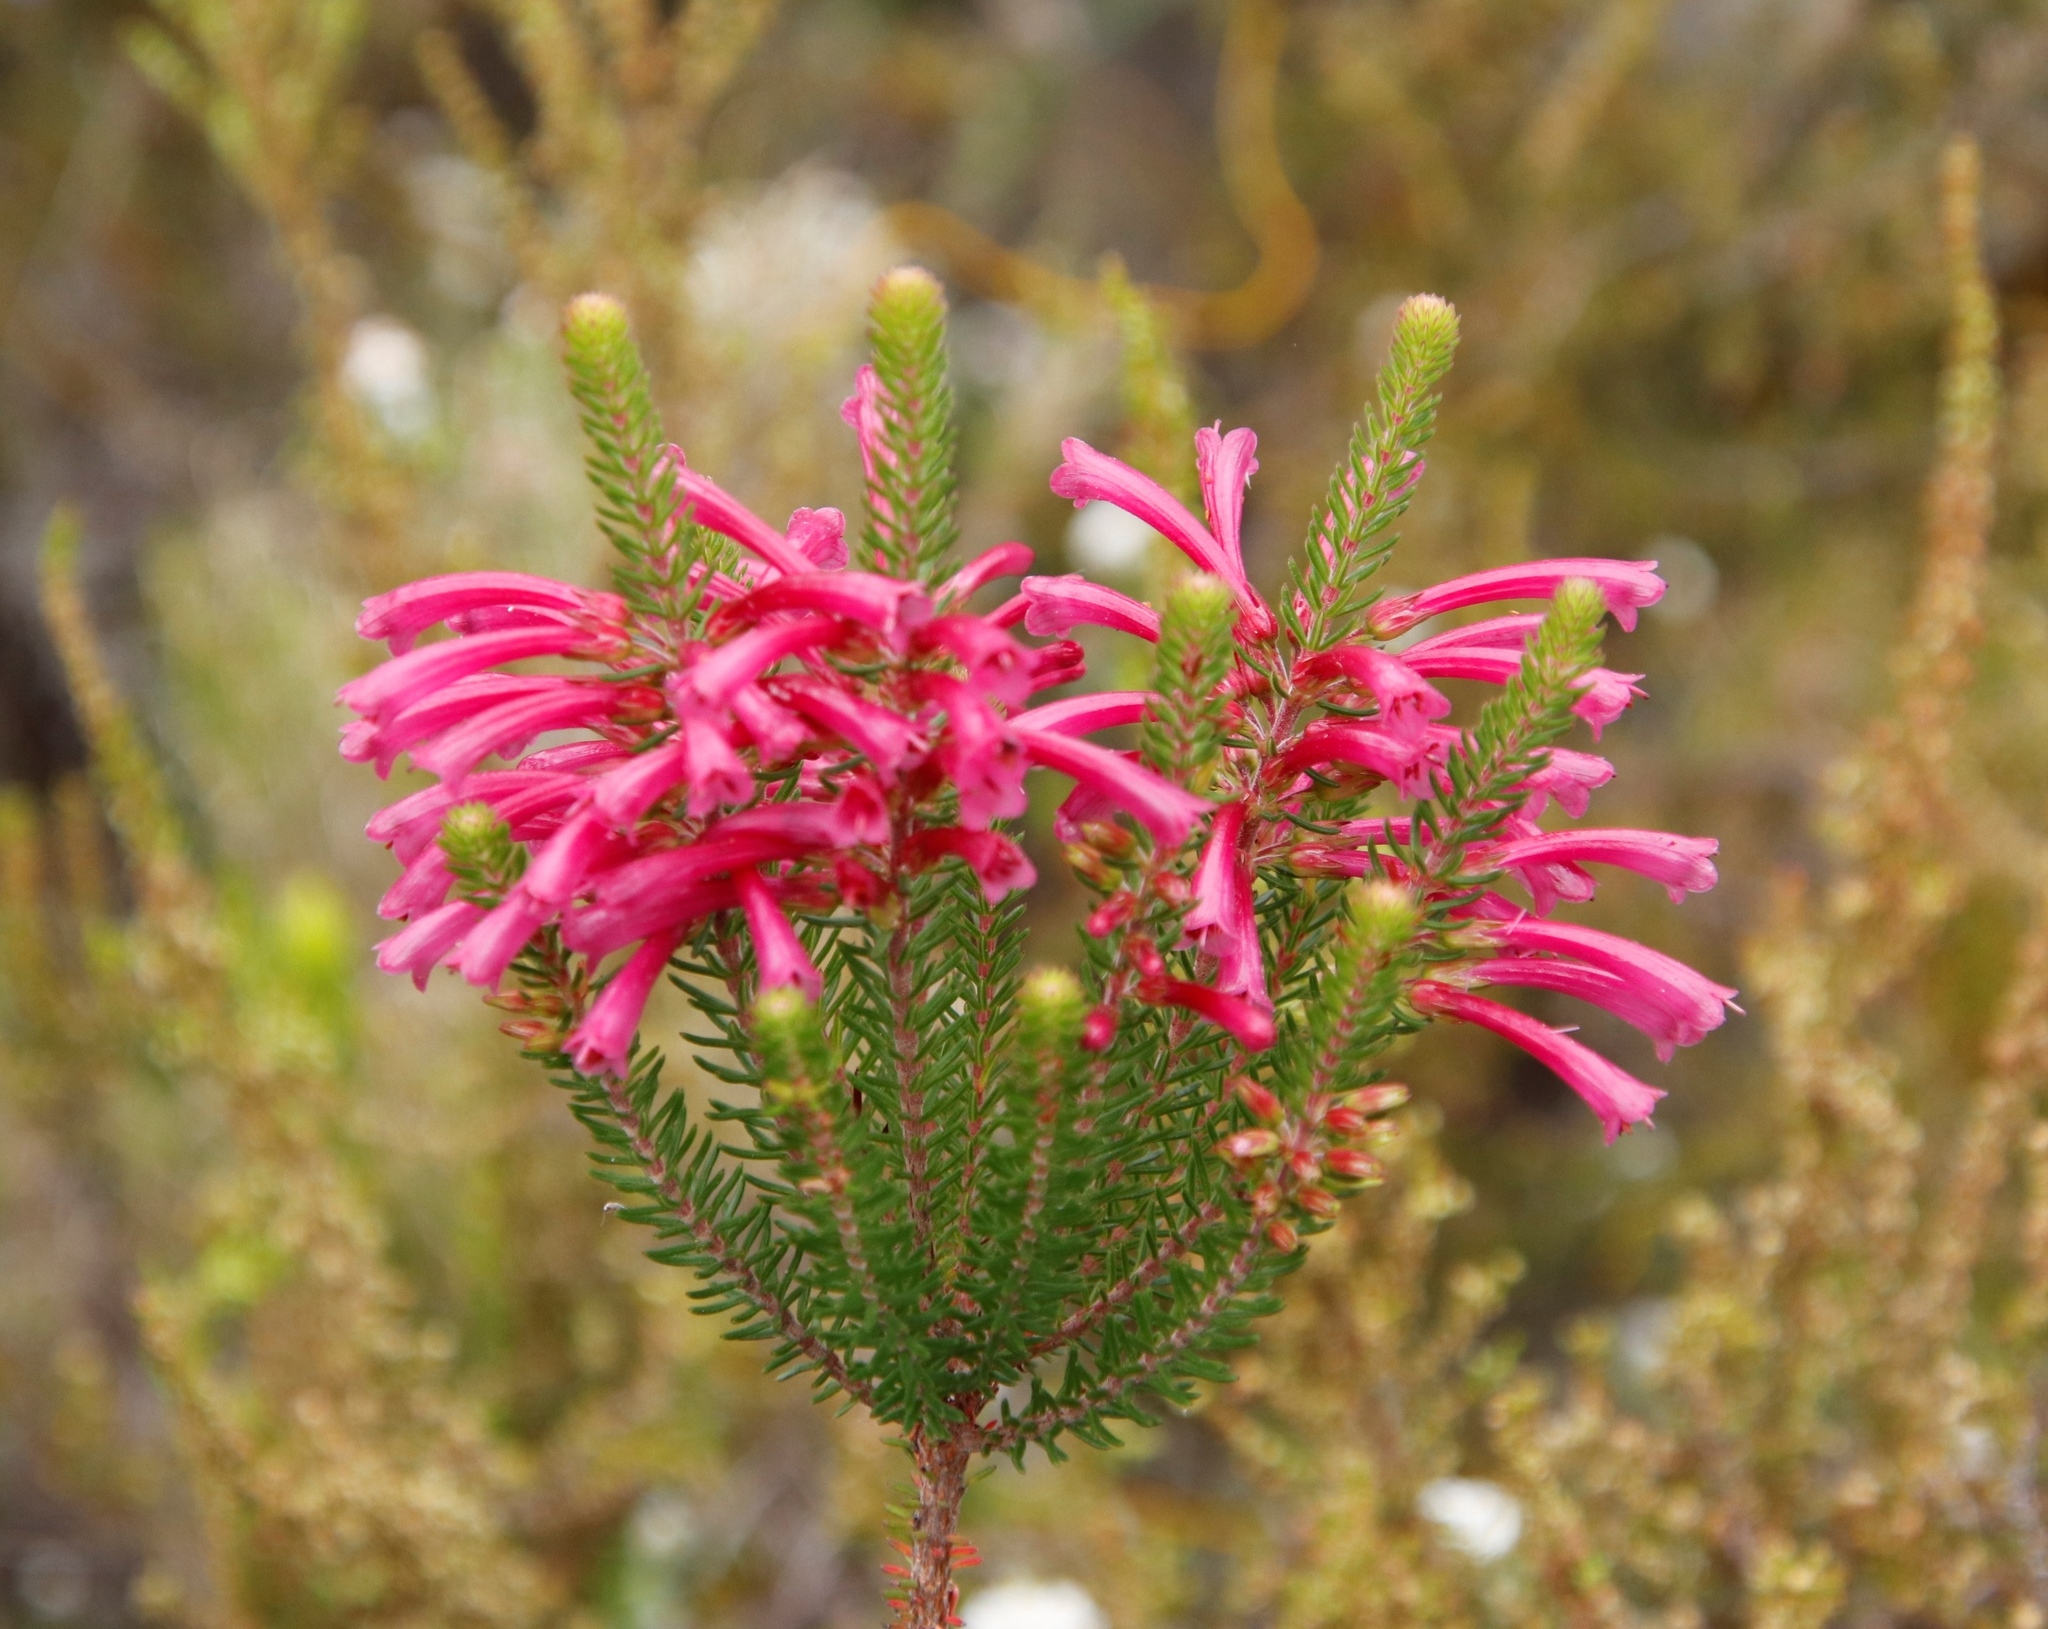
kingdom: Plantae
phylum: Tracheophyta
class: Magnoliopsida
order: Ericales
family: Ericaceae
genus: Erica
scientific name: Erica abietina
